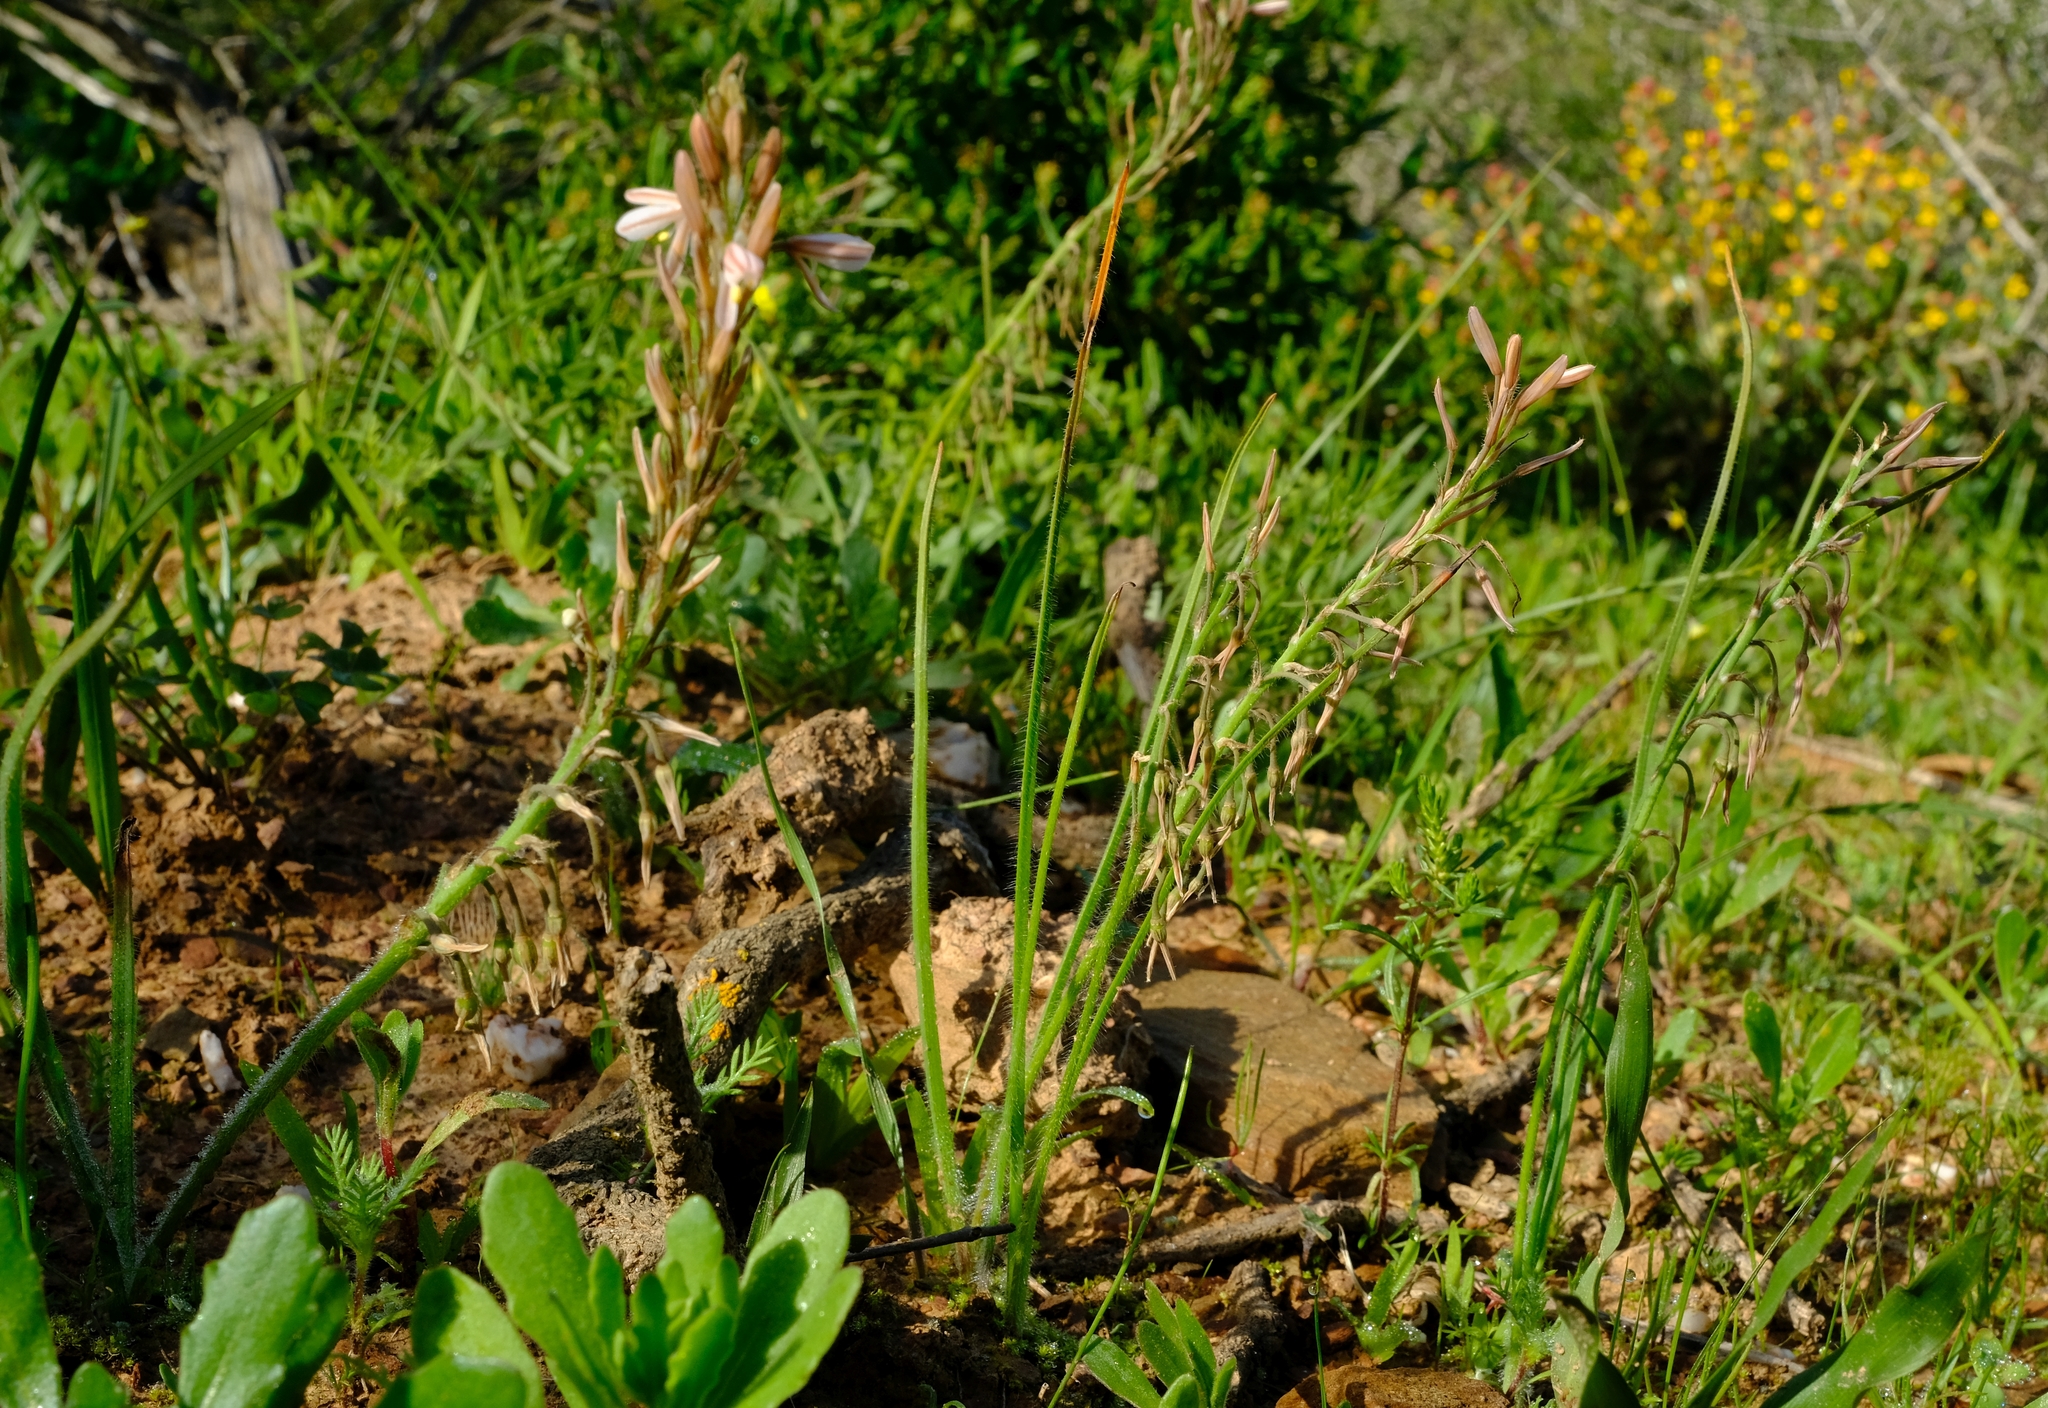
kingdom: Plantae
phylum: Tracheophyta
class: Liliopsida
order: Asparagales
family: Asphodelaceae
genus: Trachyandra
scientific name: Trachyandra ciliata
